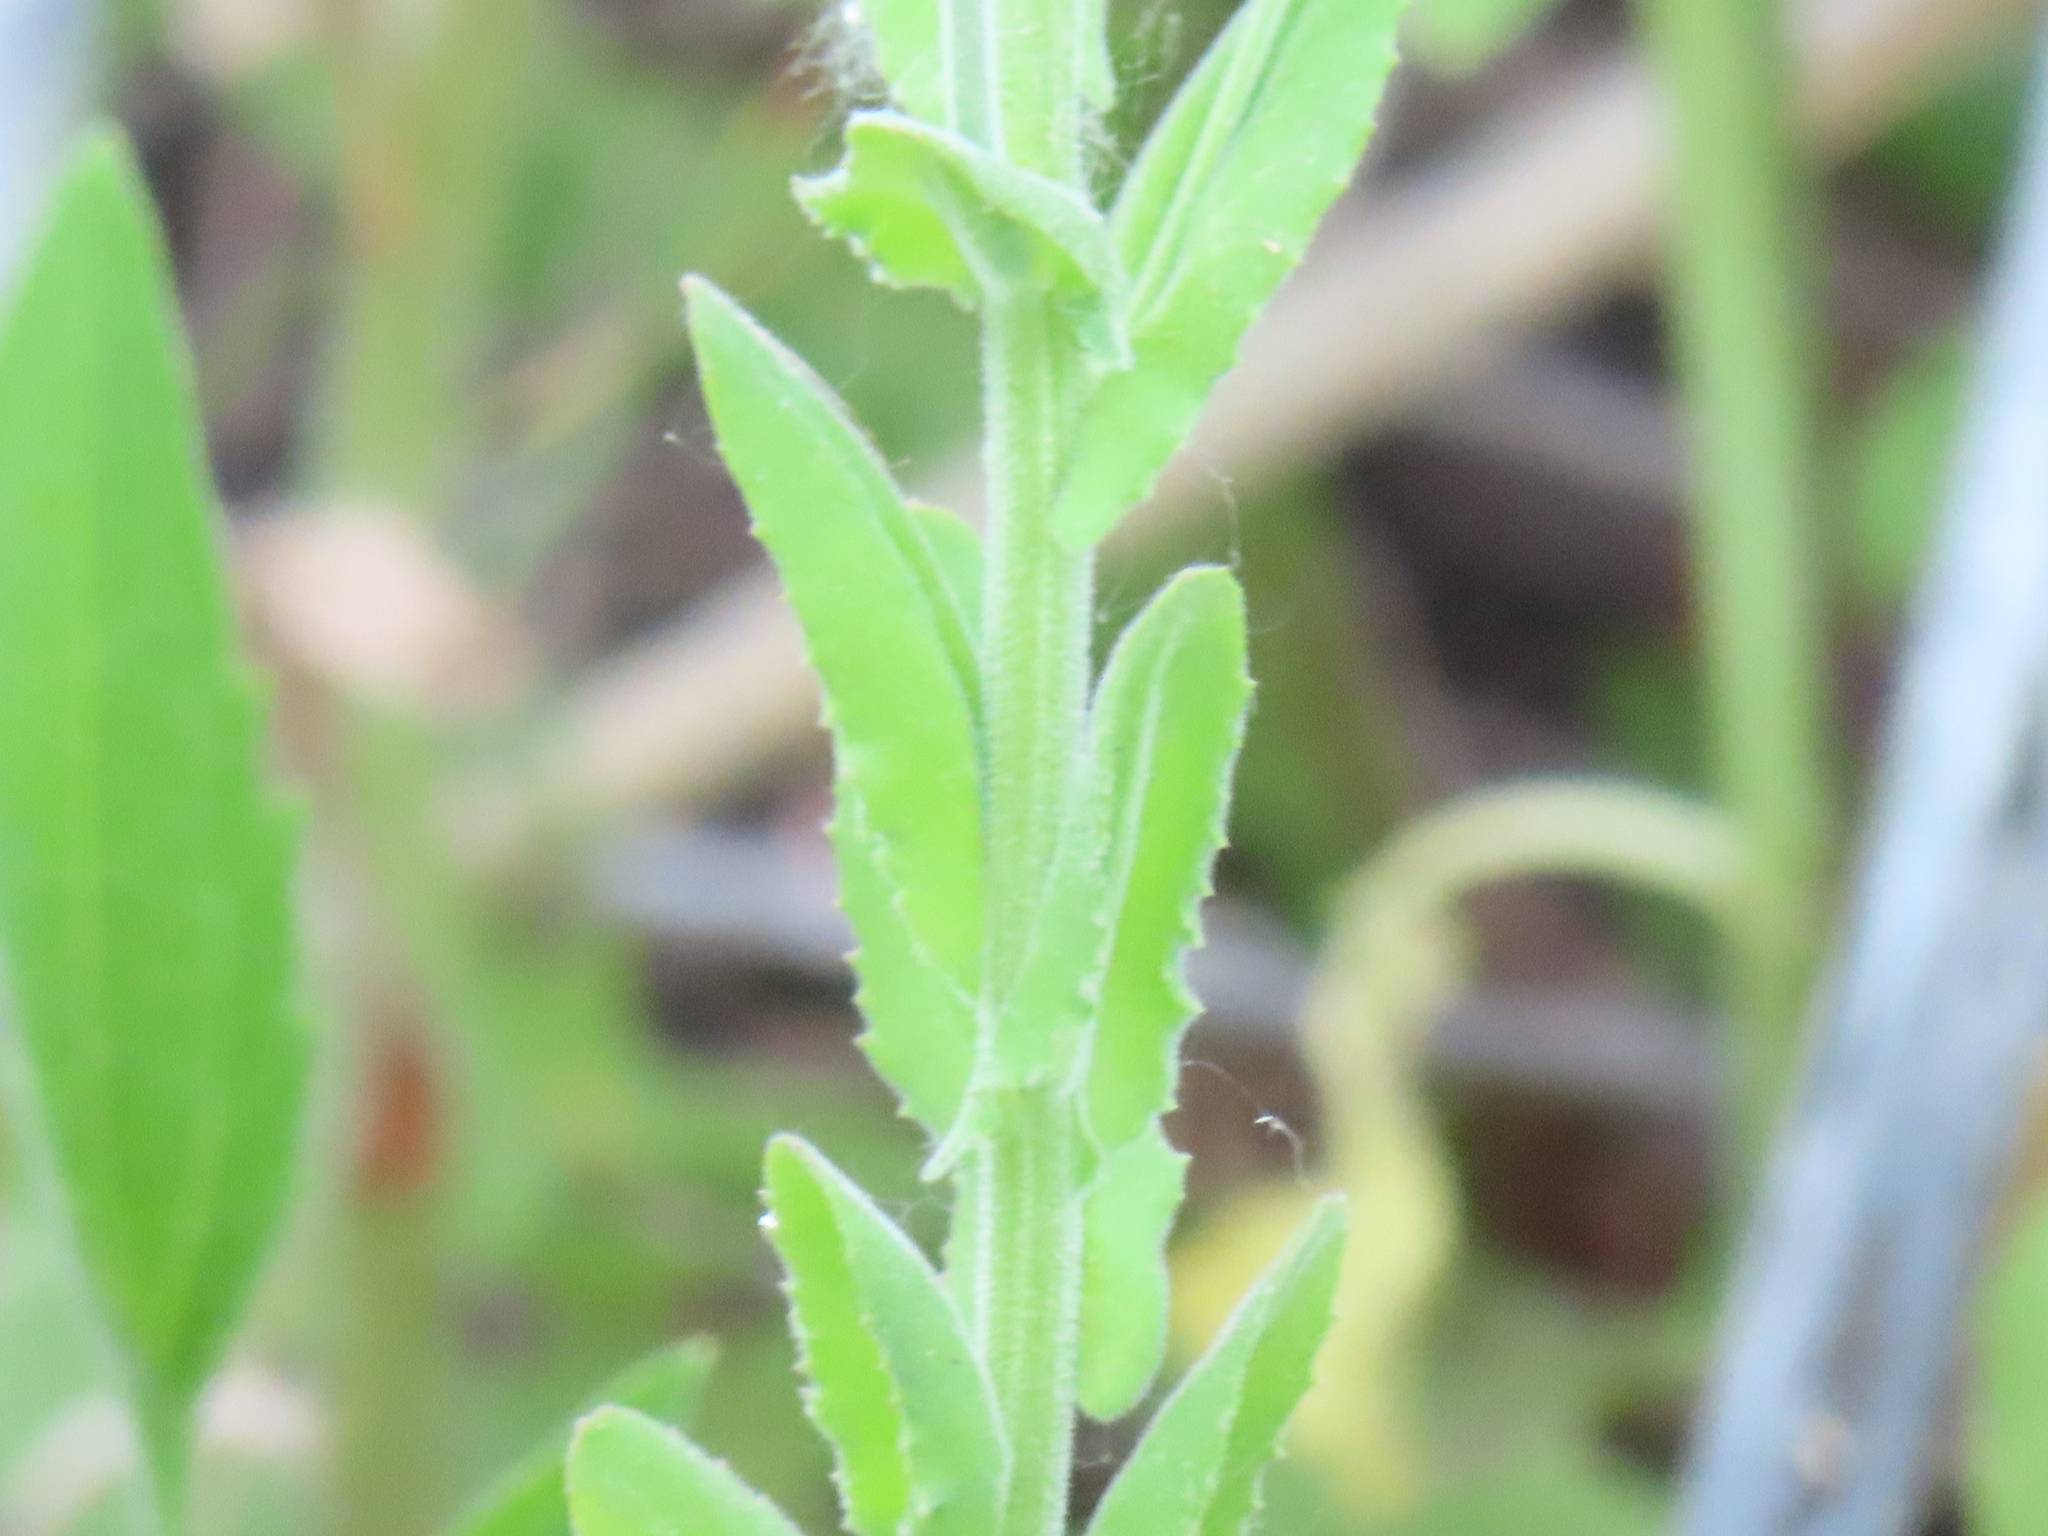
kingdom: Plantae
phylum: Tracheophyta
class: Magnoliopsida
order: Brassicales
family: Brassicaceae
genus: Lepidium
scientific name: Lepidium campestre
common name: Field pepperwort
